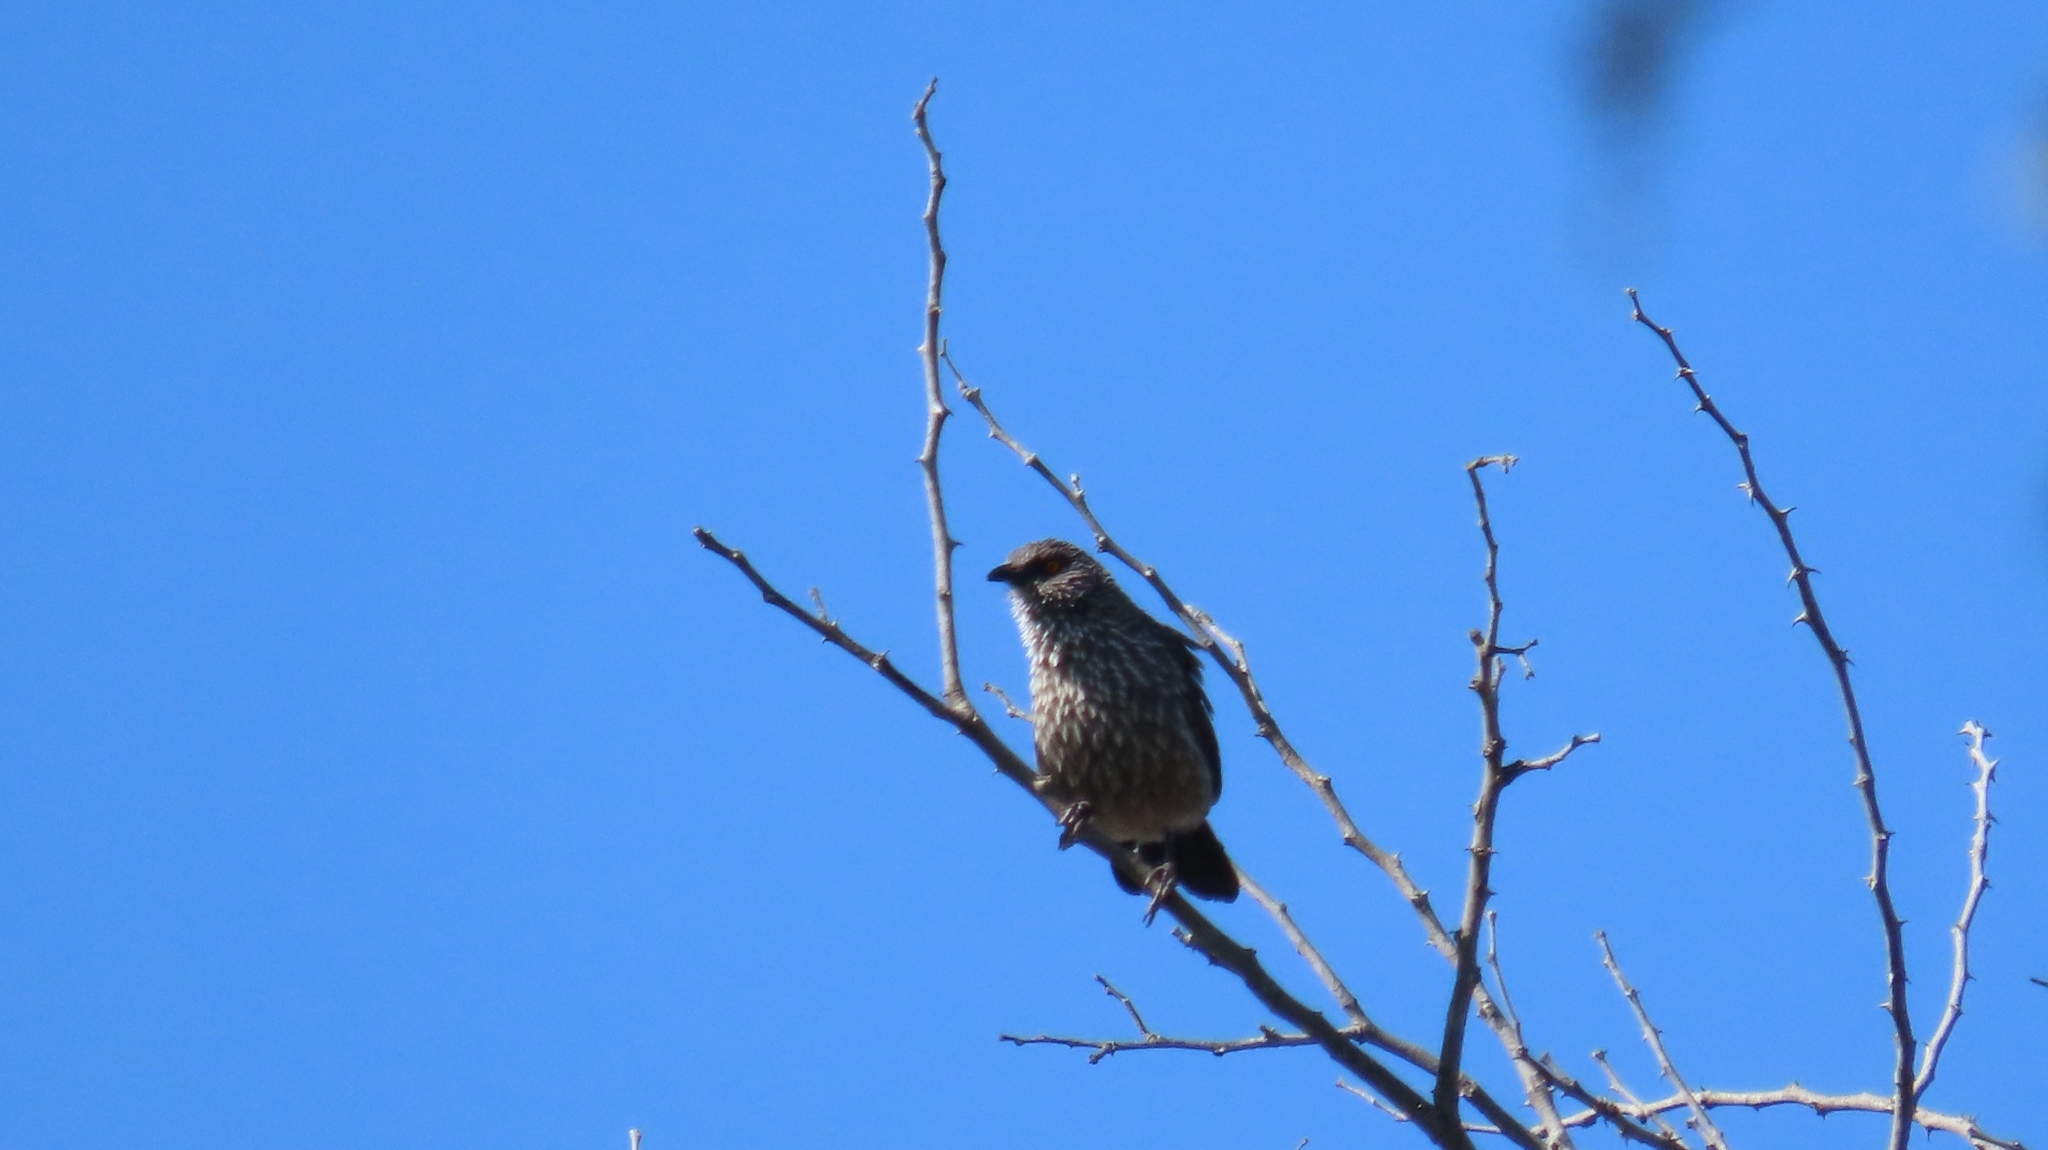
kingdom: Animalia
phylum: Chordata
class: Aves
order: Passeriformes
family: Leiothrichidae
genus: Turdoides
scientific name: Turdoides jardineii
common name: Arrow-marked babbler
